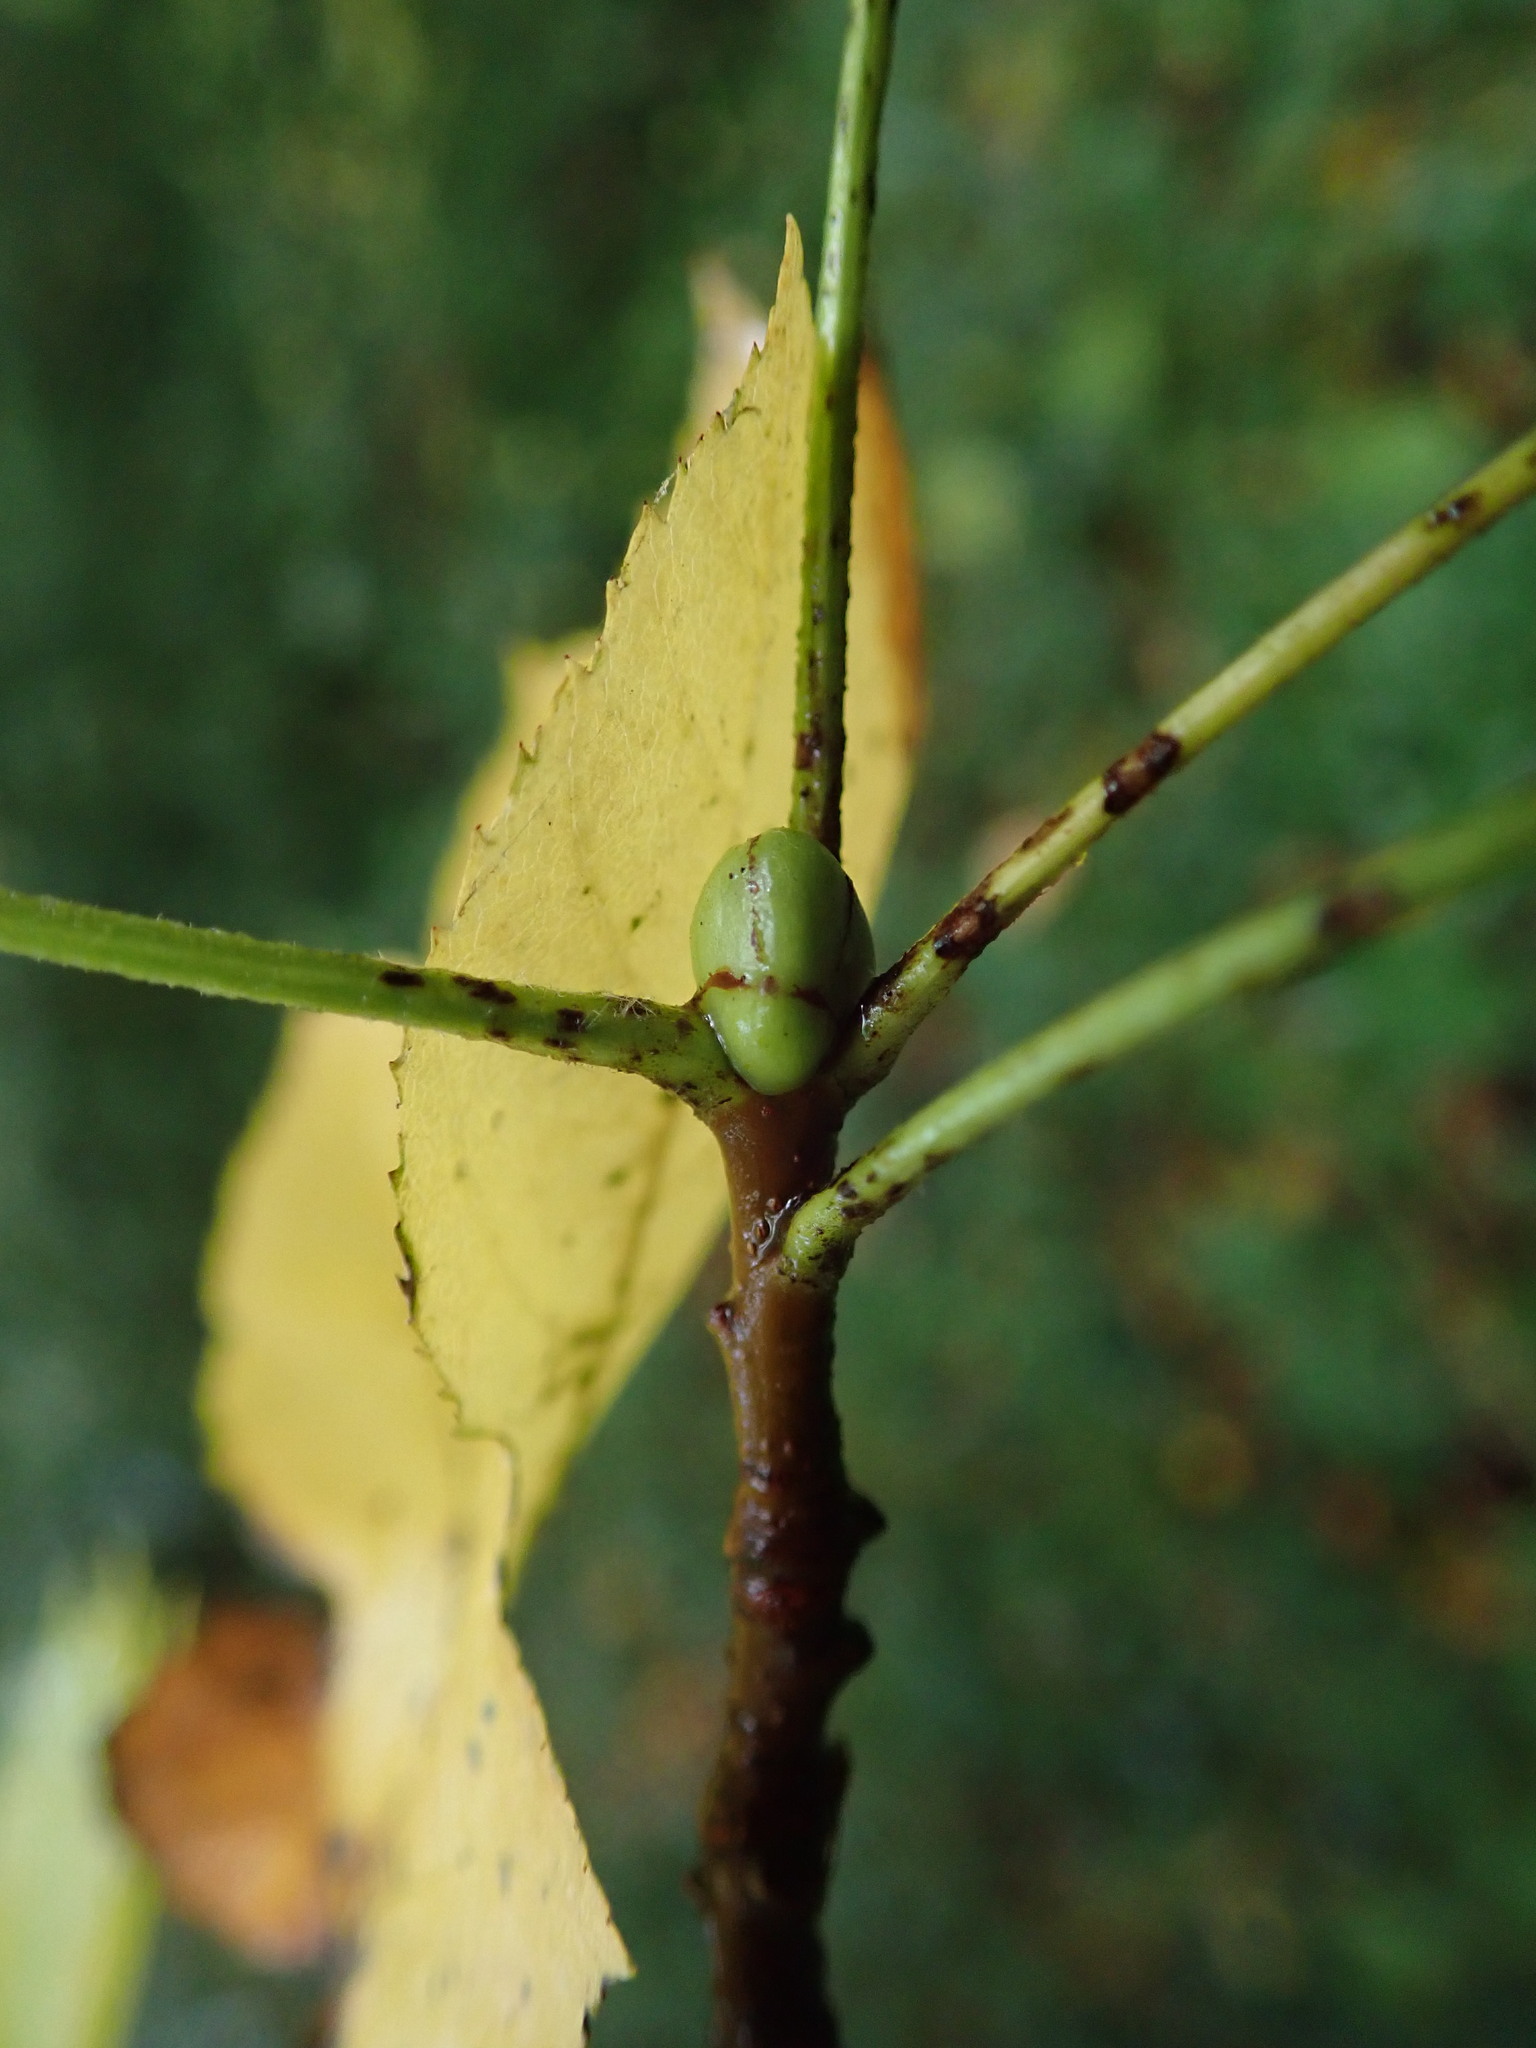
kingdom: Plantae
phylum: Tracheophyta
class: Magnoliopsida
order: Rosales
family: Rosaceae
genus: Torminalis
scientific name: Torminalis glaberrima
